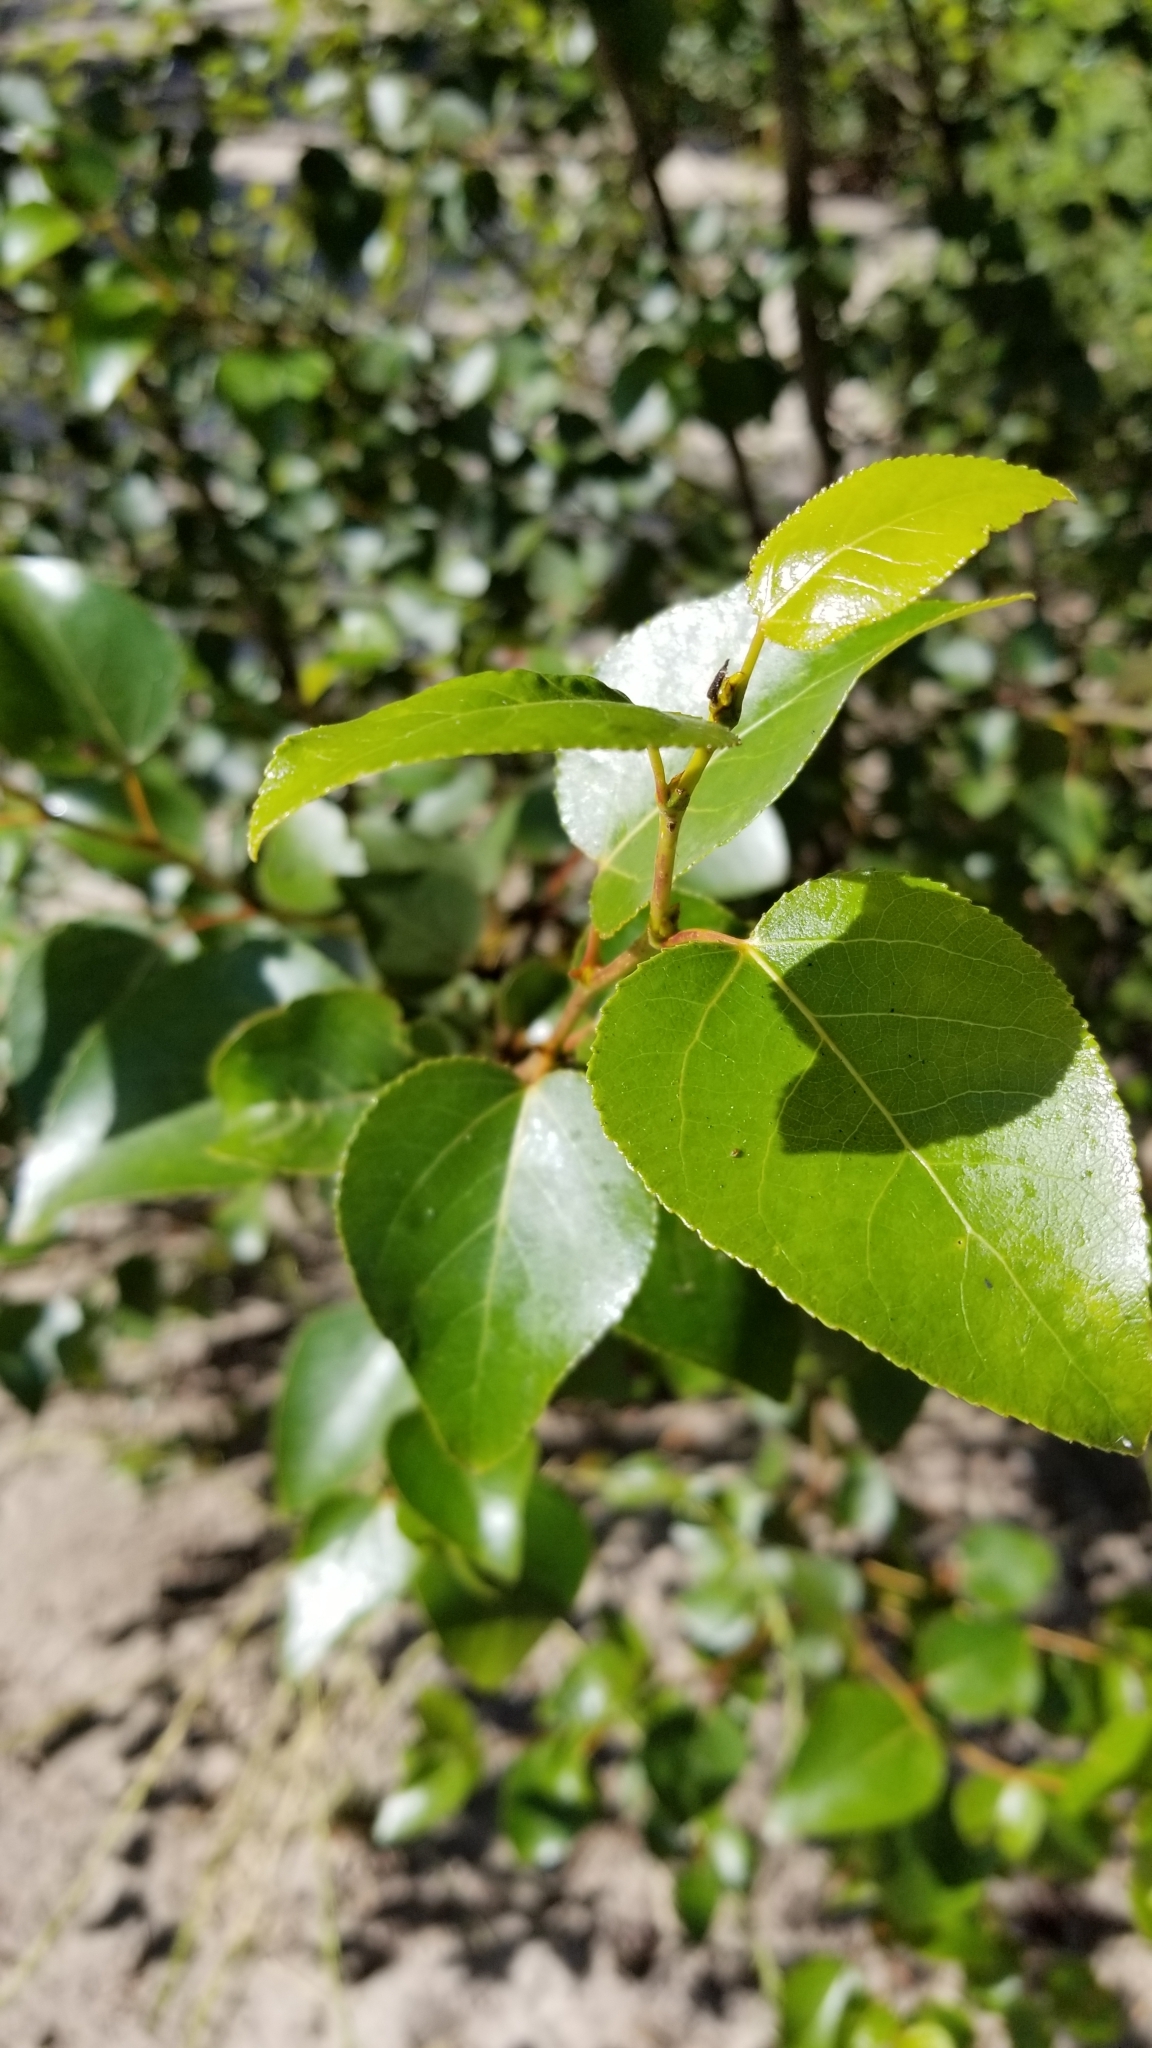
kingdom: Plantae
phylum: Tracheophyta
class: Magnoliopsida
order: Malpighiales
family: Salicaceae
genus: Populus
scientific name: Populus trichocarpa
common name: Black cottonwood
